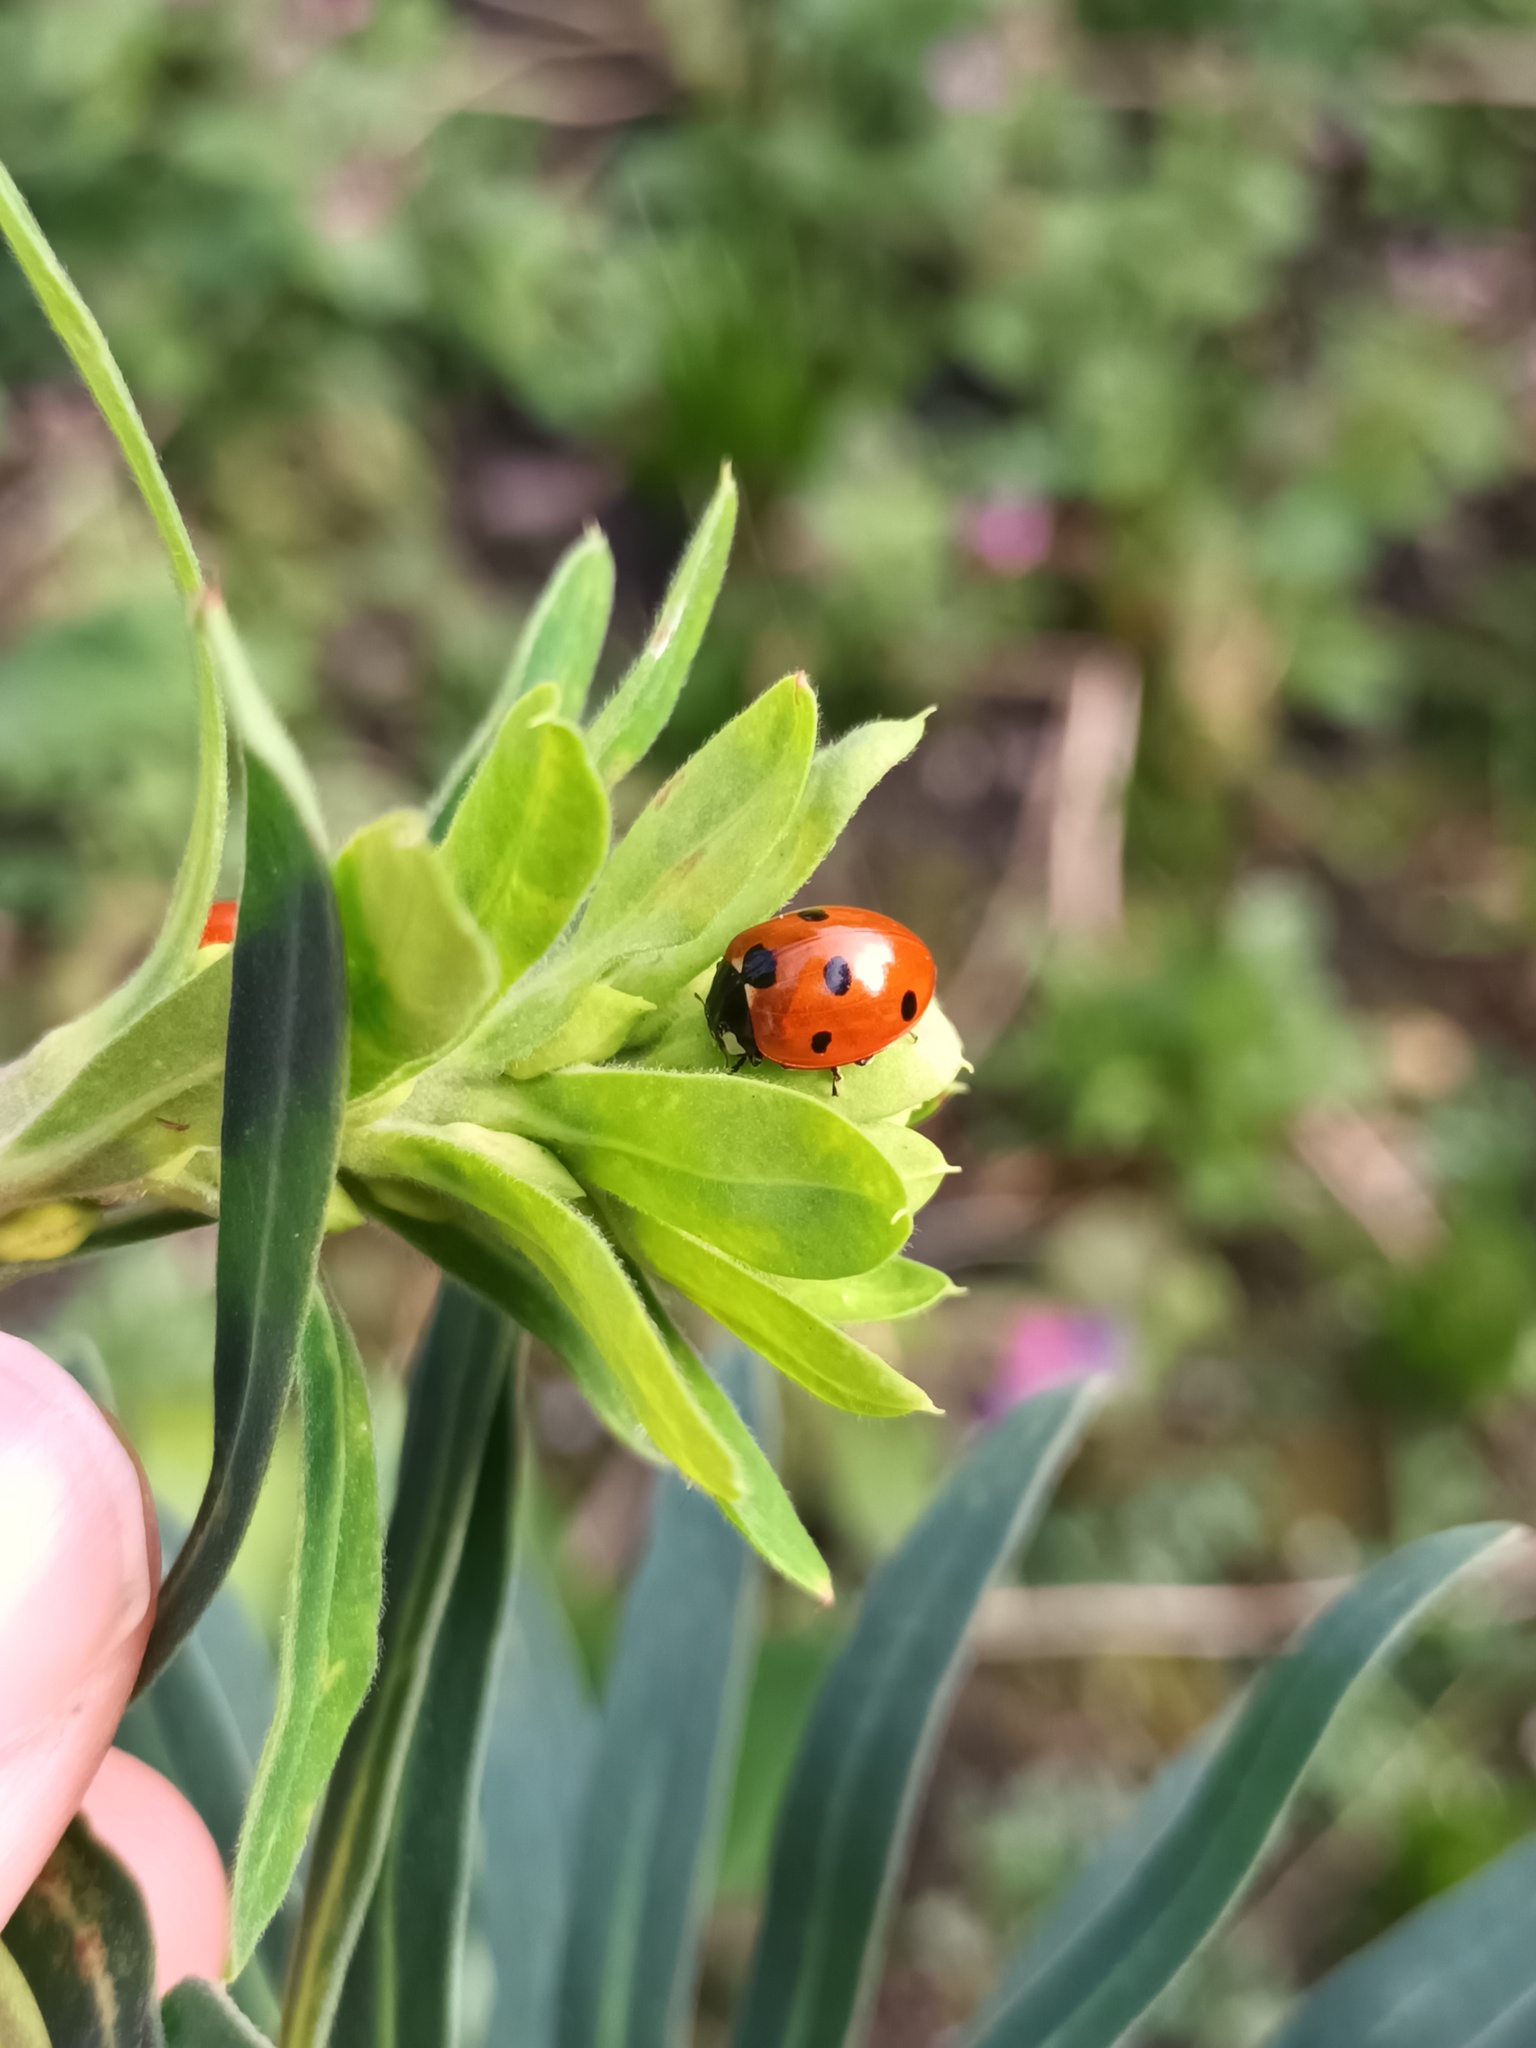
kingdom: Animalia
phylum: Arthropoda
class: Insecta
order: Coleoptera
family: Coccinellidae
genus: Coccinella
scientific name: Coccinella septempunctata
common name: Sevenspotted lady beetle
